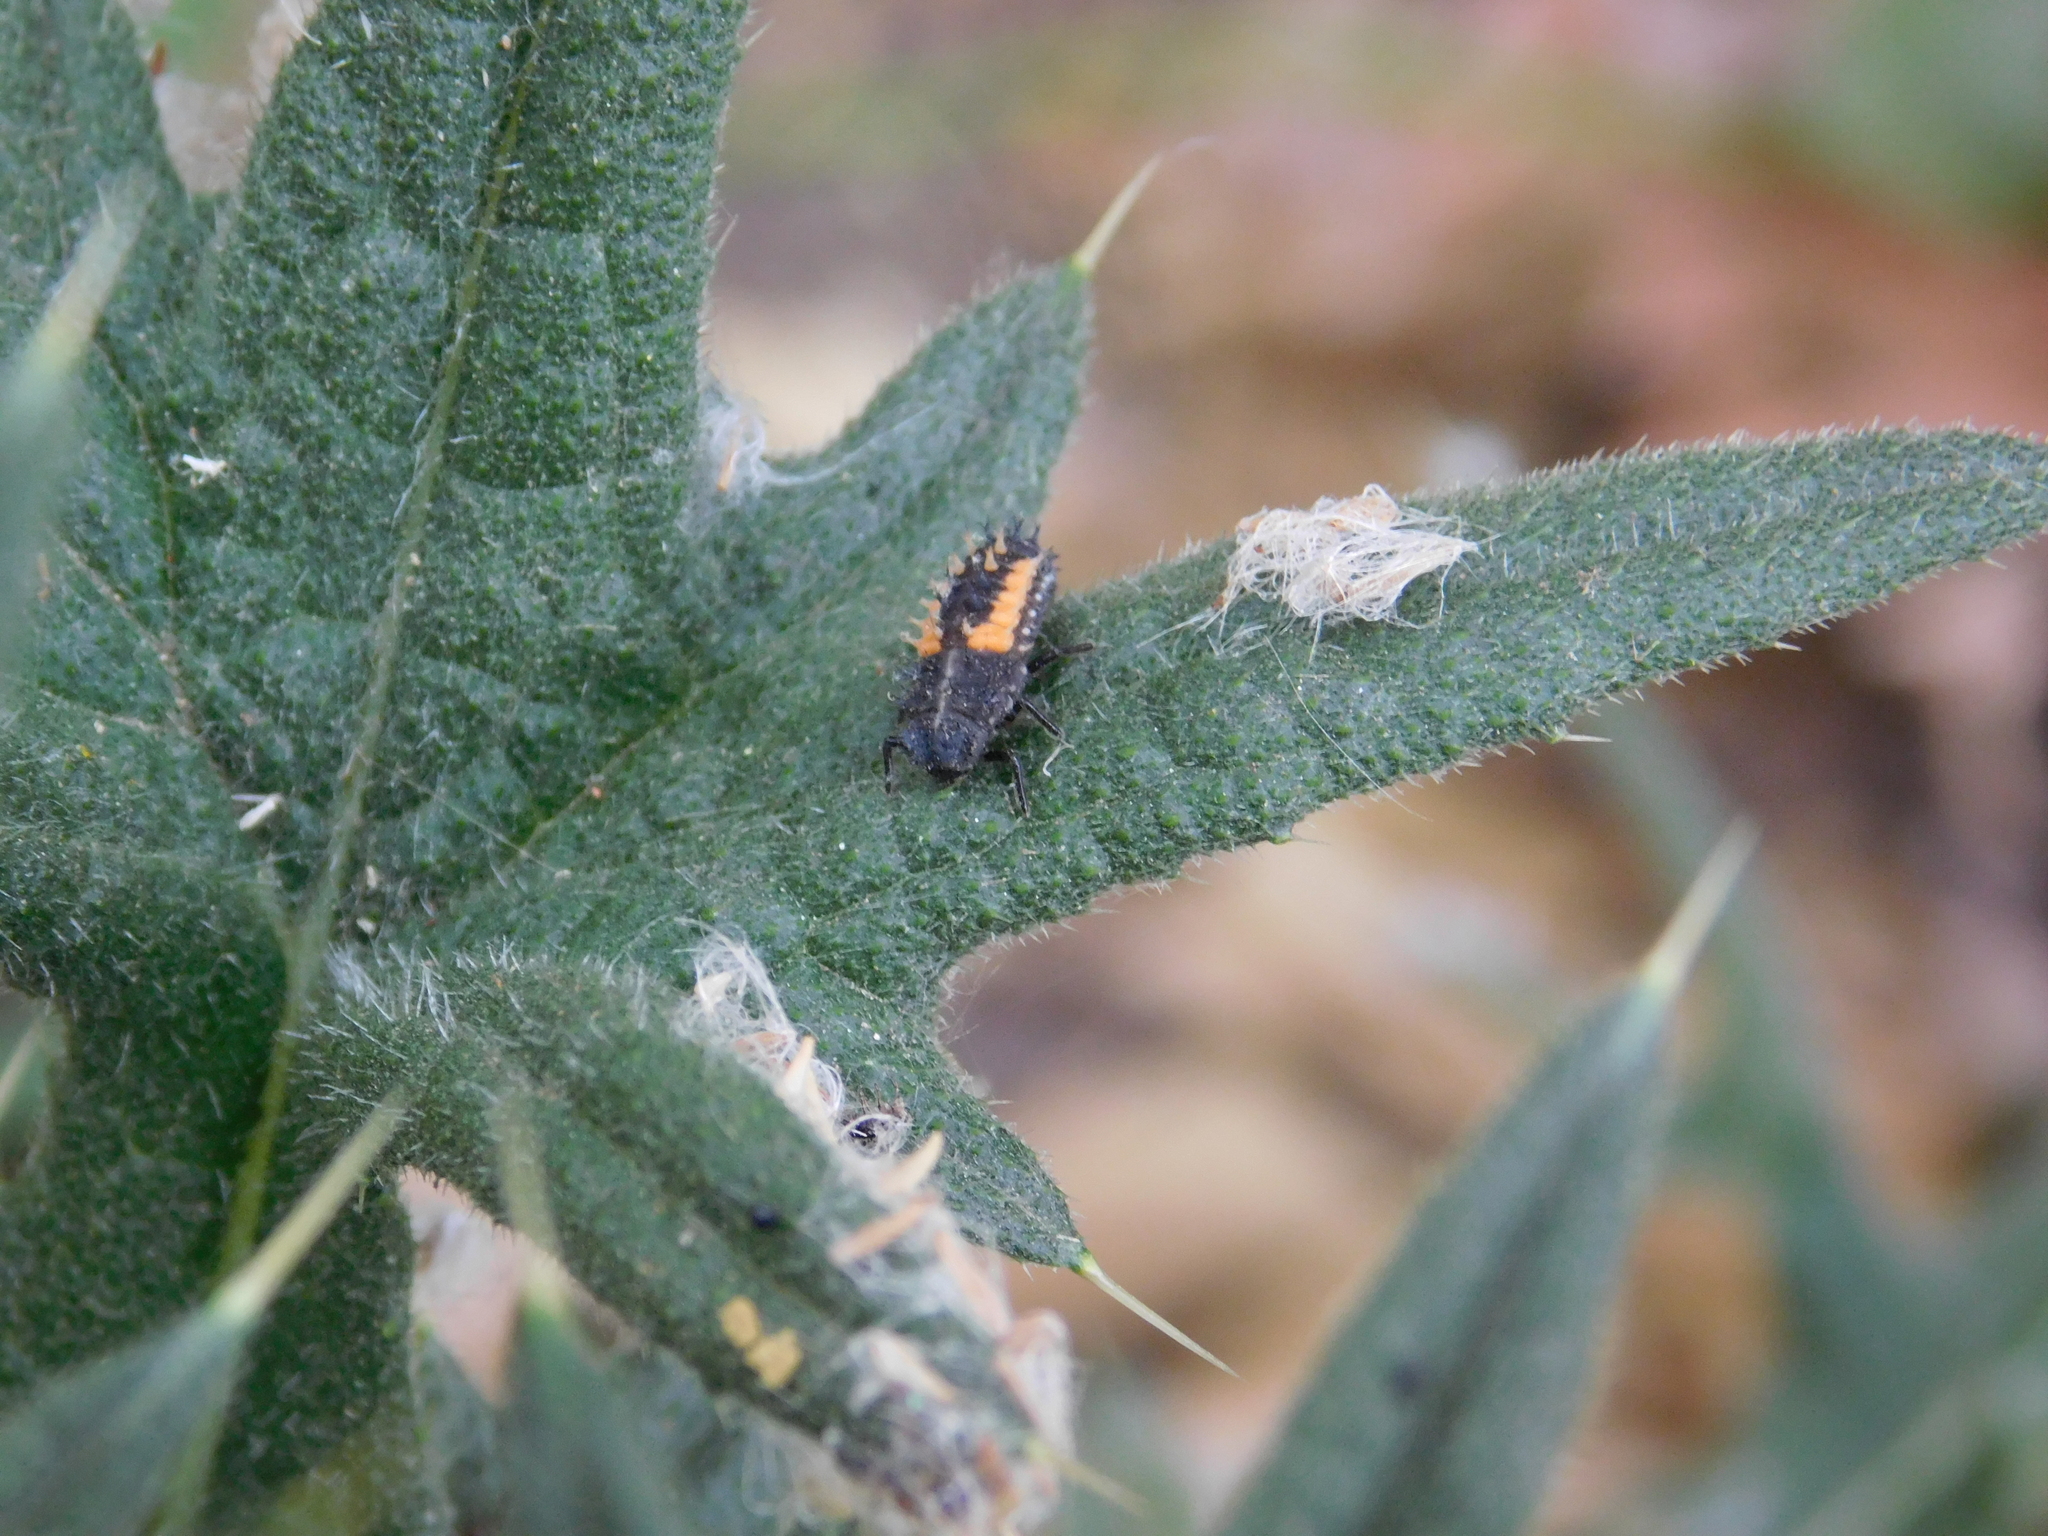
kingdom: Animalia
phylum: Arthropoda
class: Insecta
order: Coleoptera
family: Coccinellidae
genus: Harmonia
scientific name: Harmonia axyridis
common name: Harlequin ladybird
